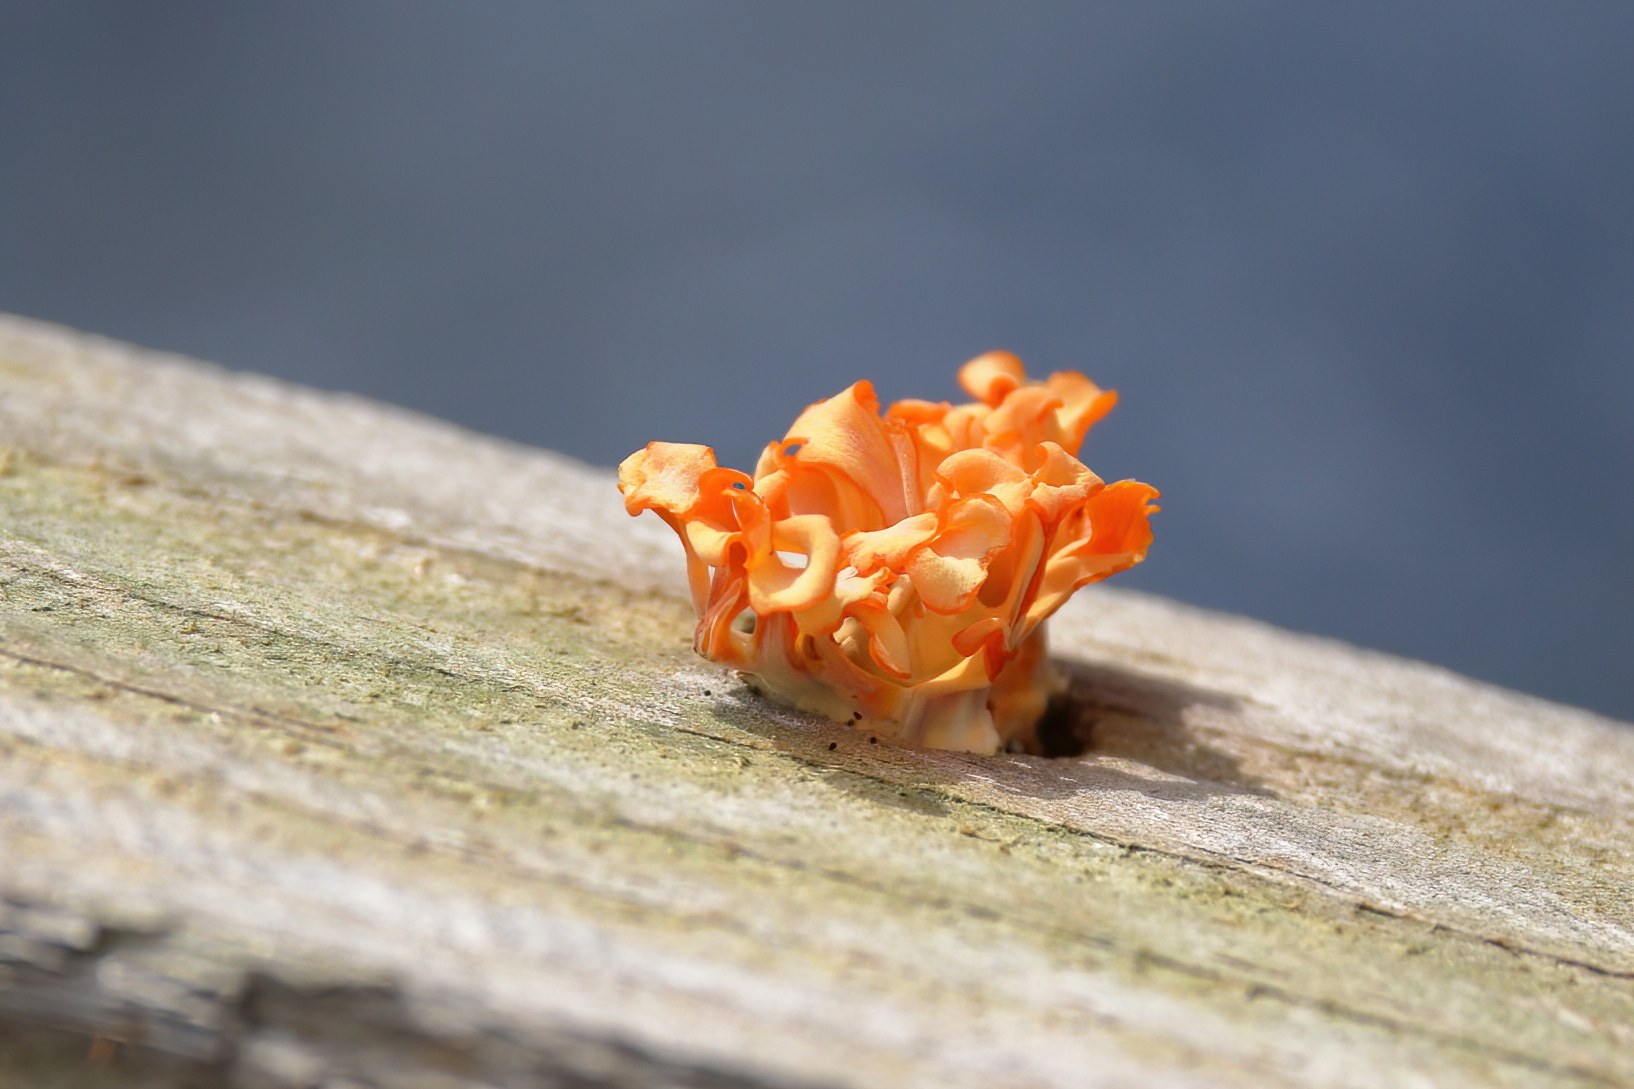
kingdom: Fungi
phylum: Basidiomycota
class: Dacrymycetes
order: Dacrymycetales
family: Dacrymycetaceae
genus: Dacrymyces
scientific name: Dacrymyces spathularius
